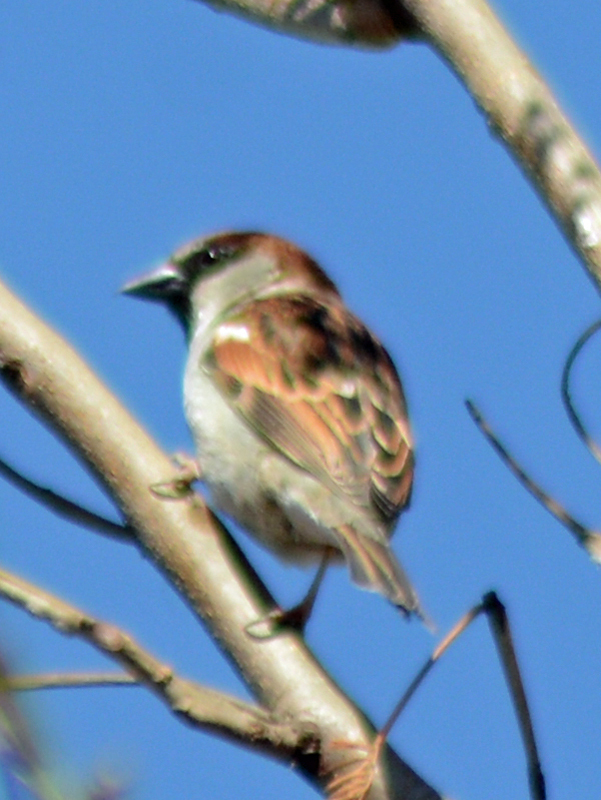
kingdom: Animalia
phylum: Chordata
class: Aves
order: Passeriformes
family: Passeridae
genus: Passer
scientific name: Passer domesticus
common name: House sparrow
